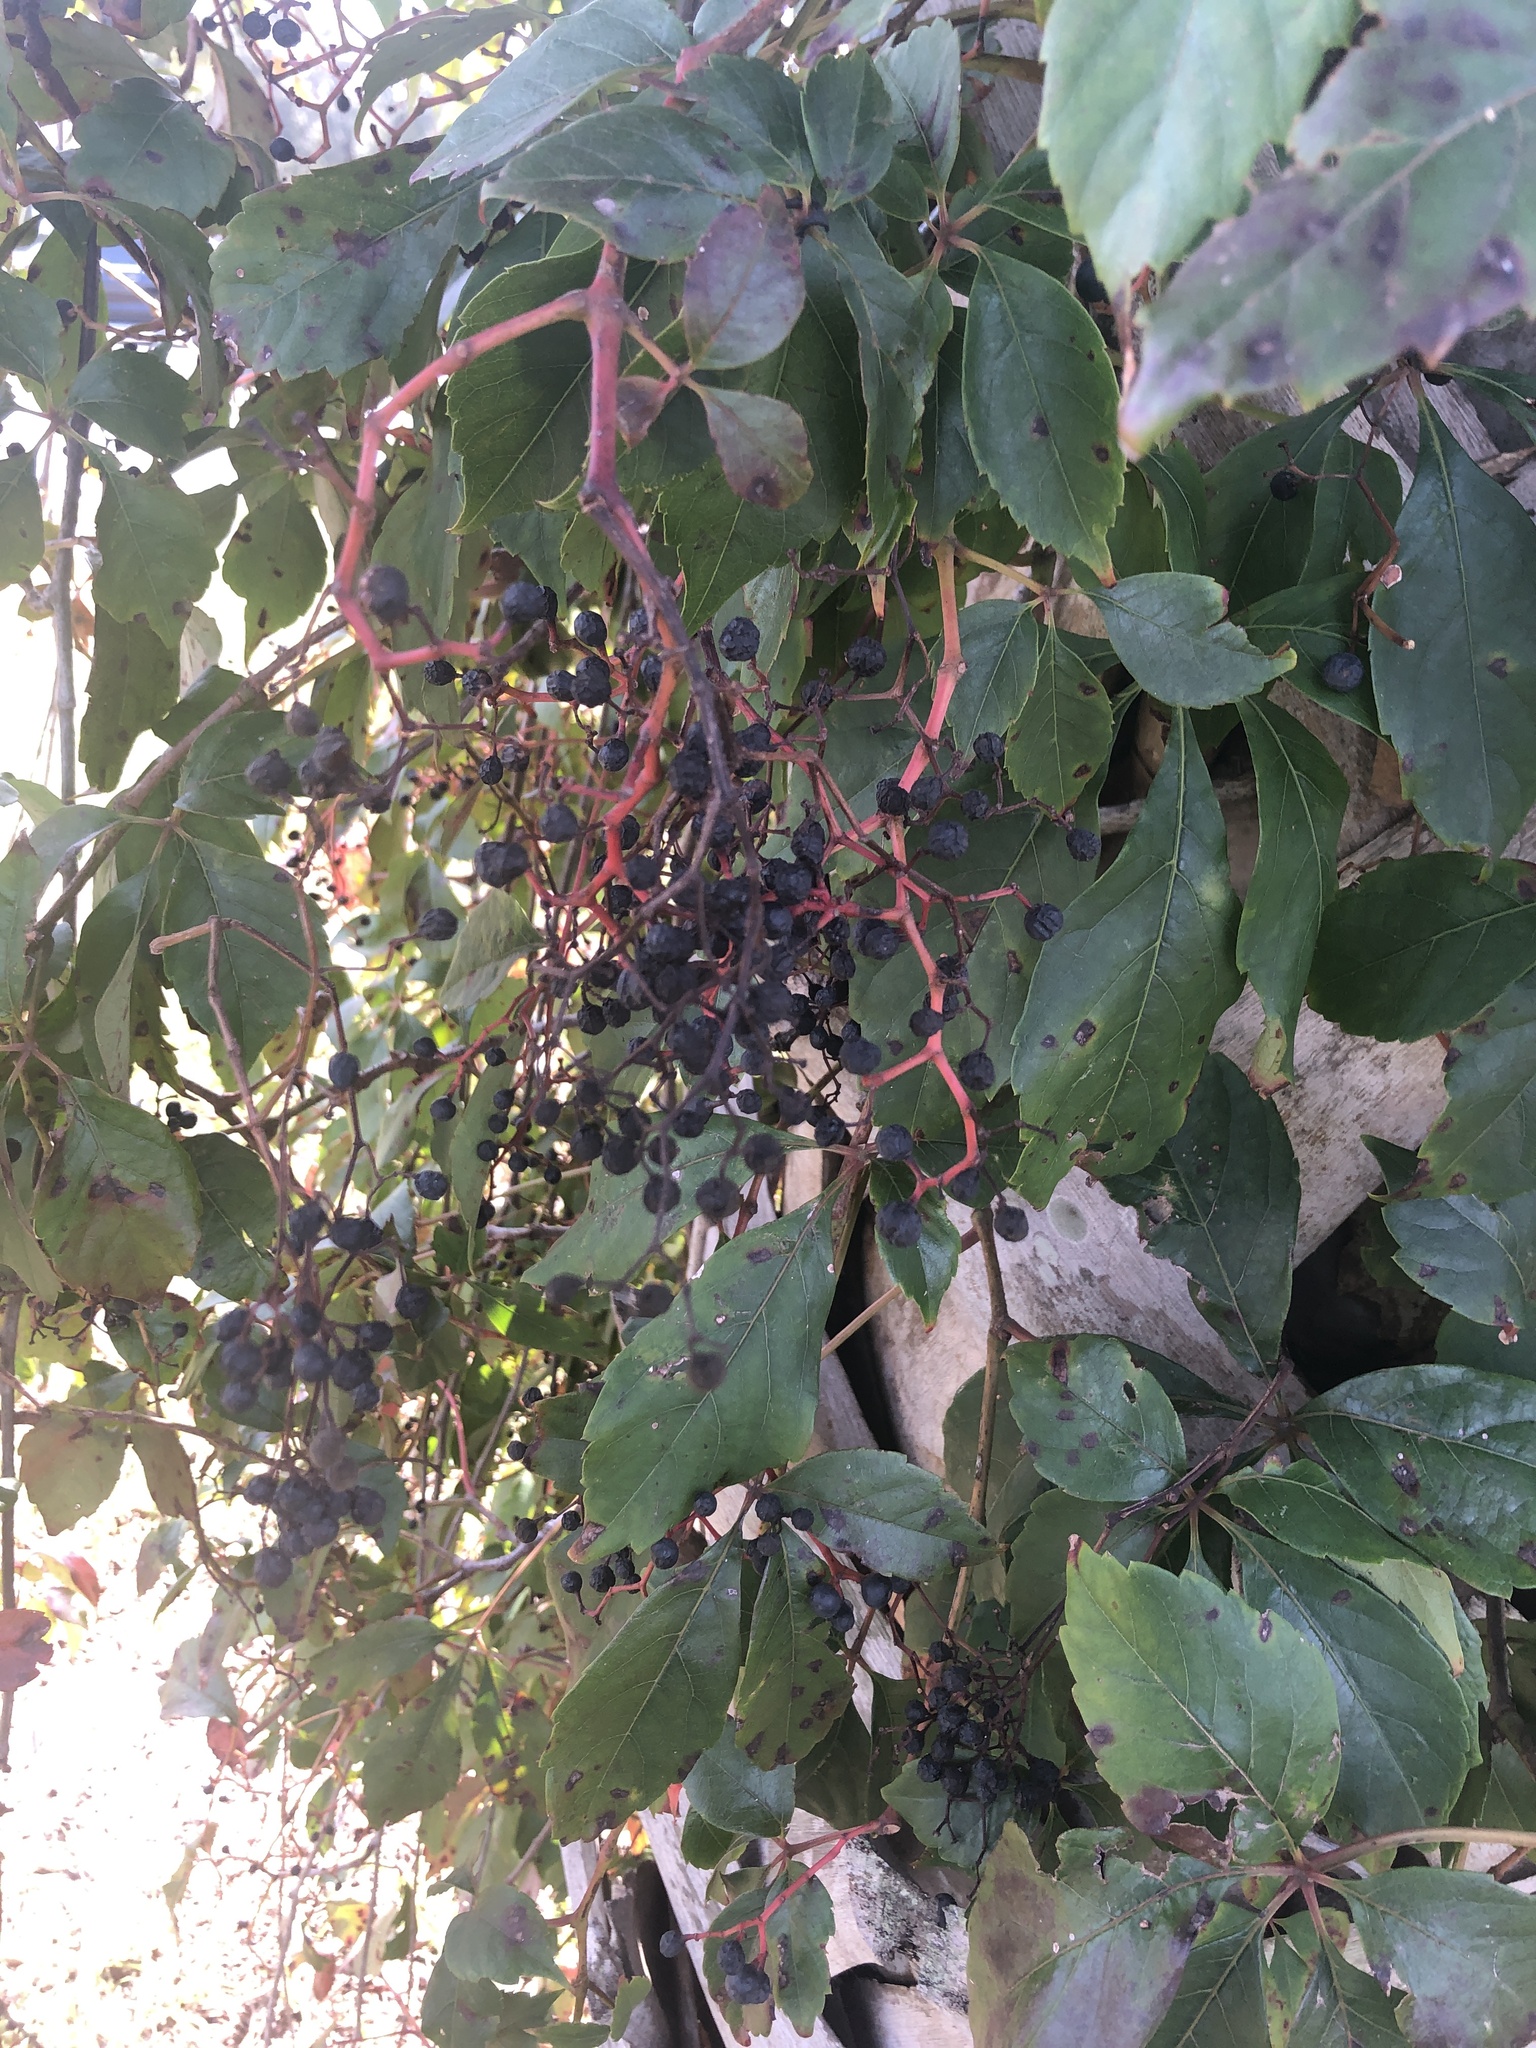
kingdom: Plantae
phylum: Tracheophyta
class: Magnoliopsida
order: Vitales
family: Vitaceae
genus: Parthenocissus
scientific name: Parthenocissus quinquefolia
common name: Virginia-creeper
